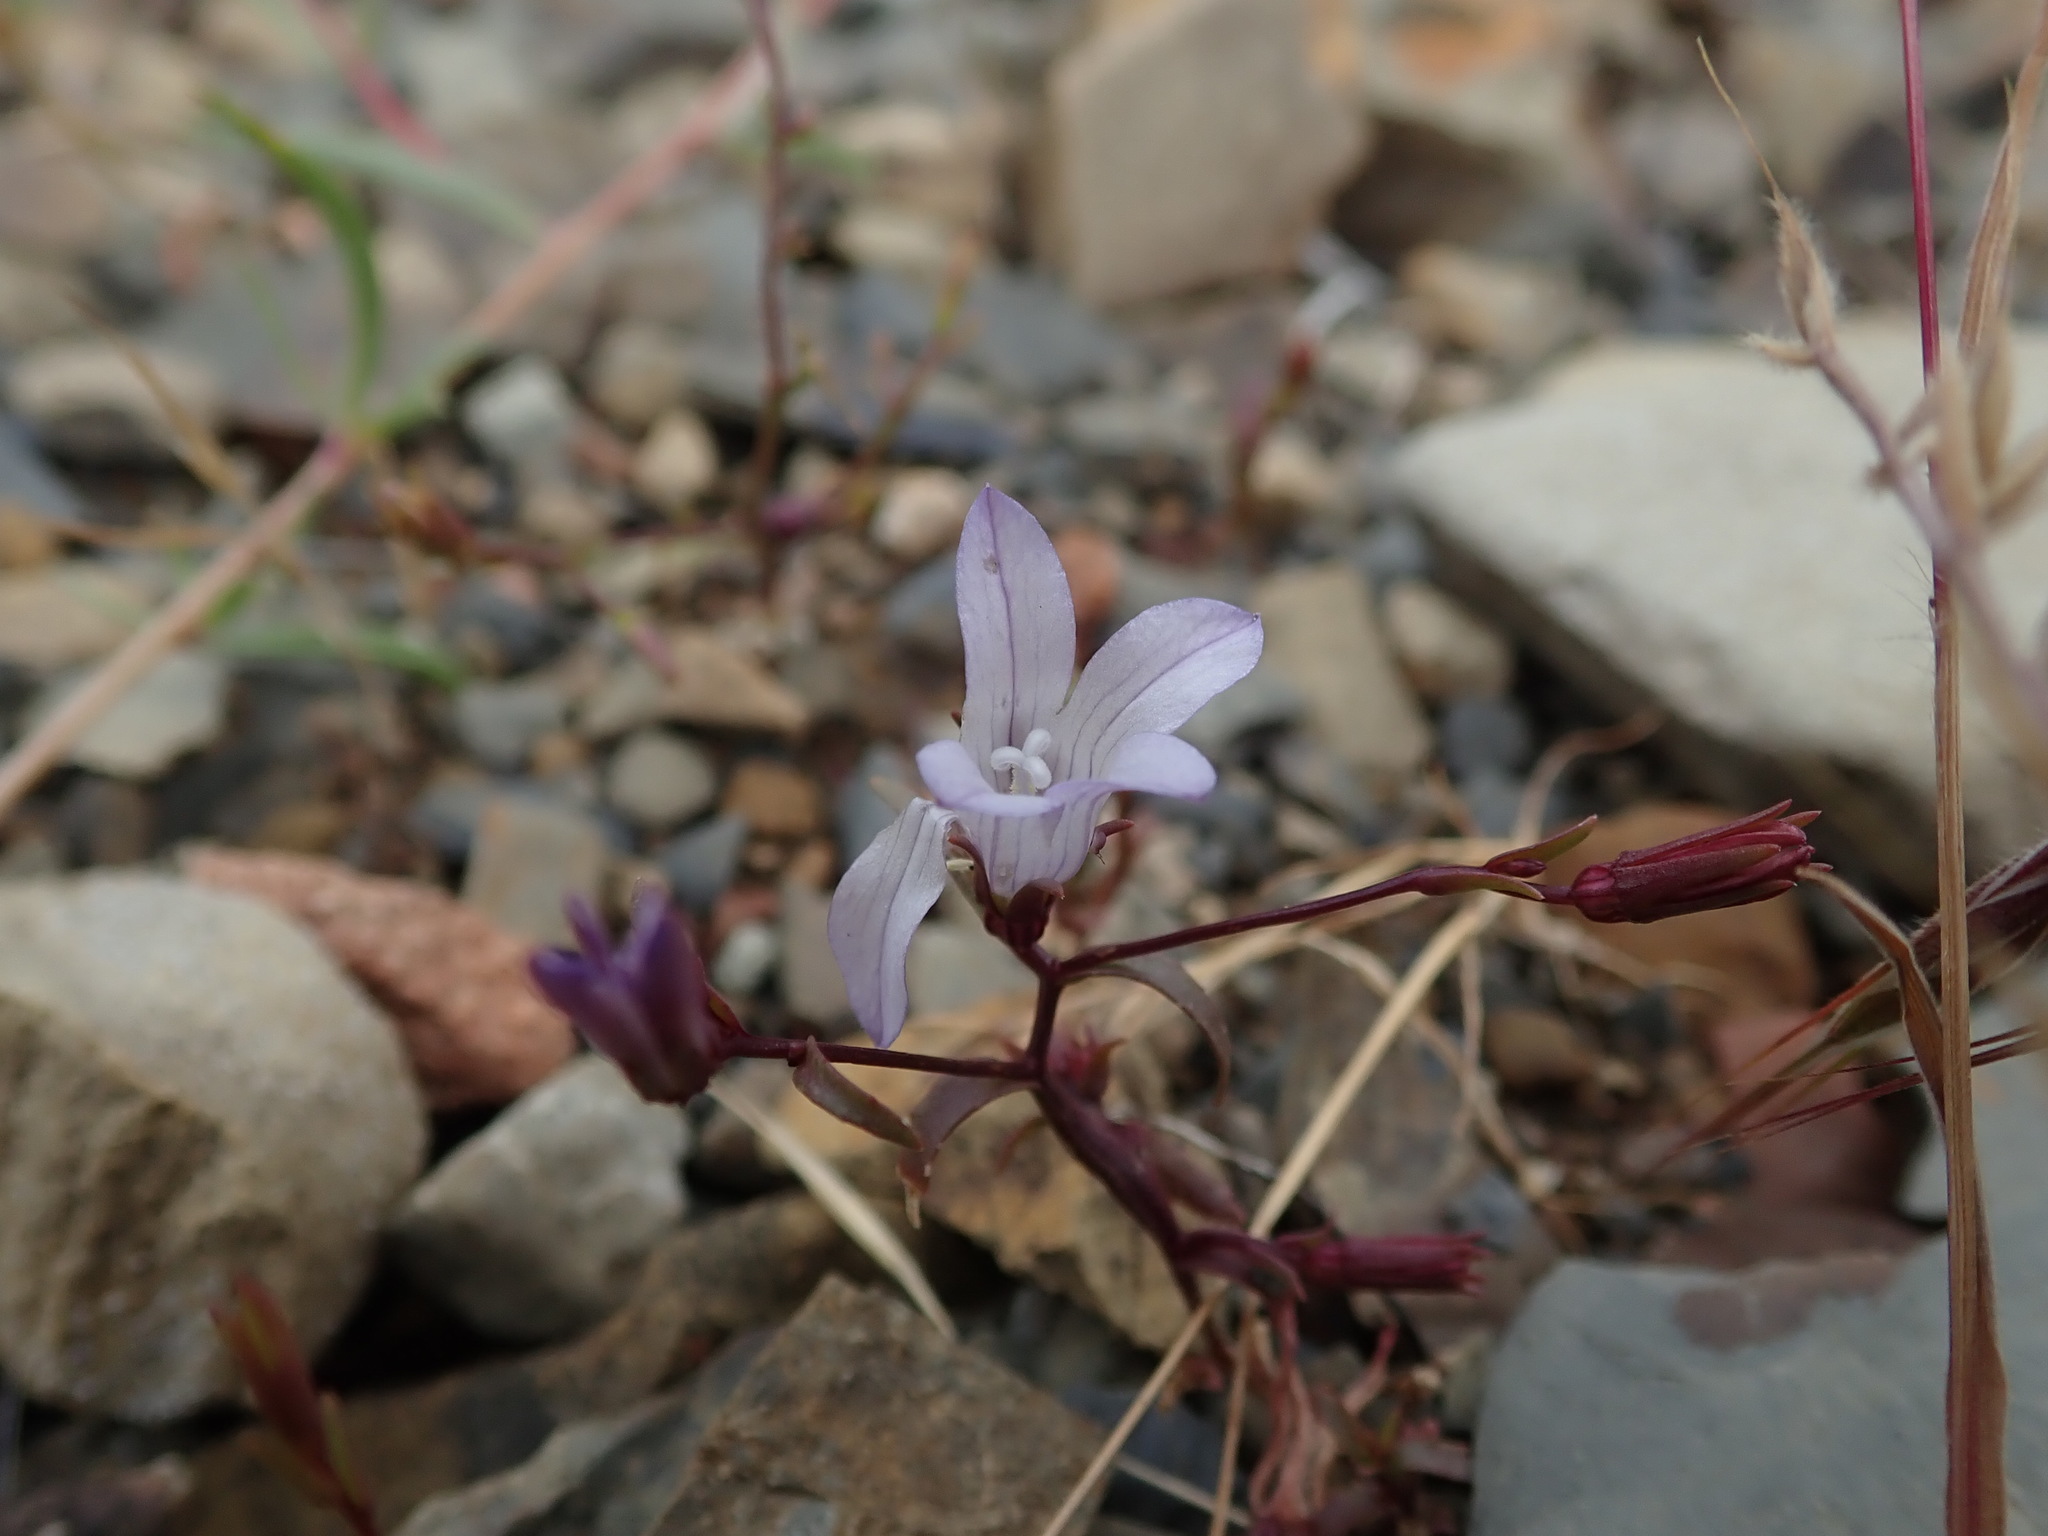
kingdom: Plantae
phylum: Tracheophyta
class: Magnoliopsida
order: Asterales
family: Campanulaceae
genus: Ravenella
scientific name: Ravenella exigua
